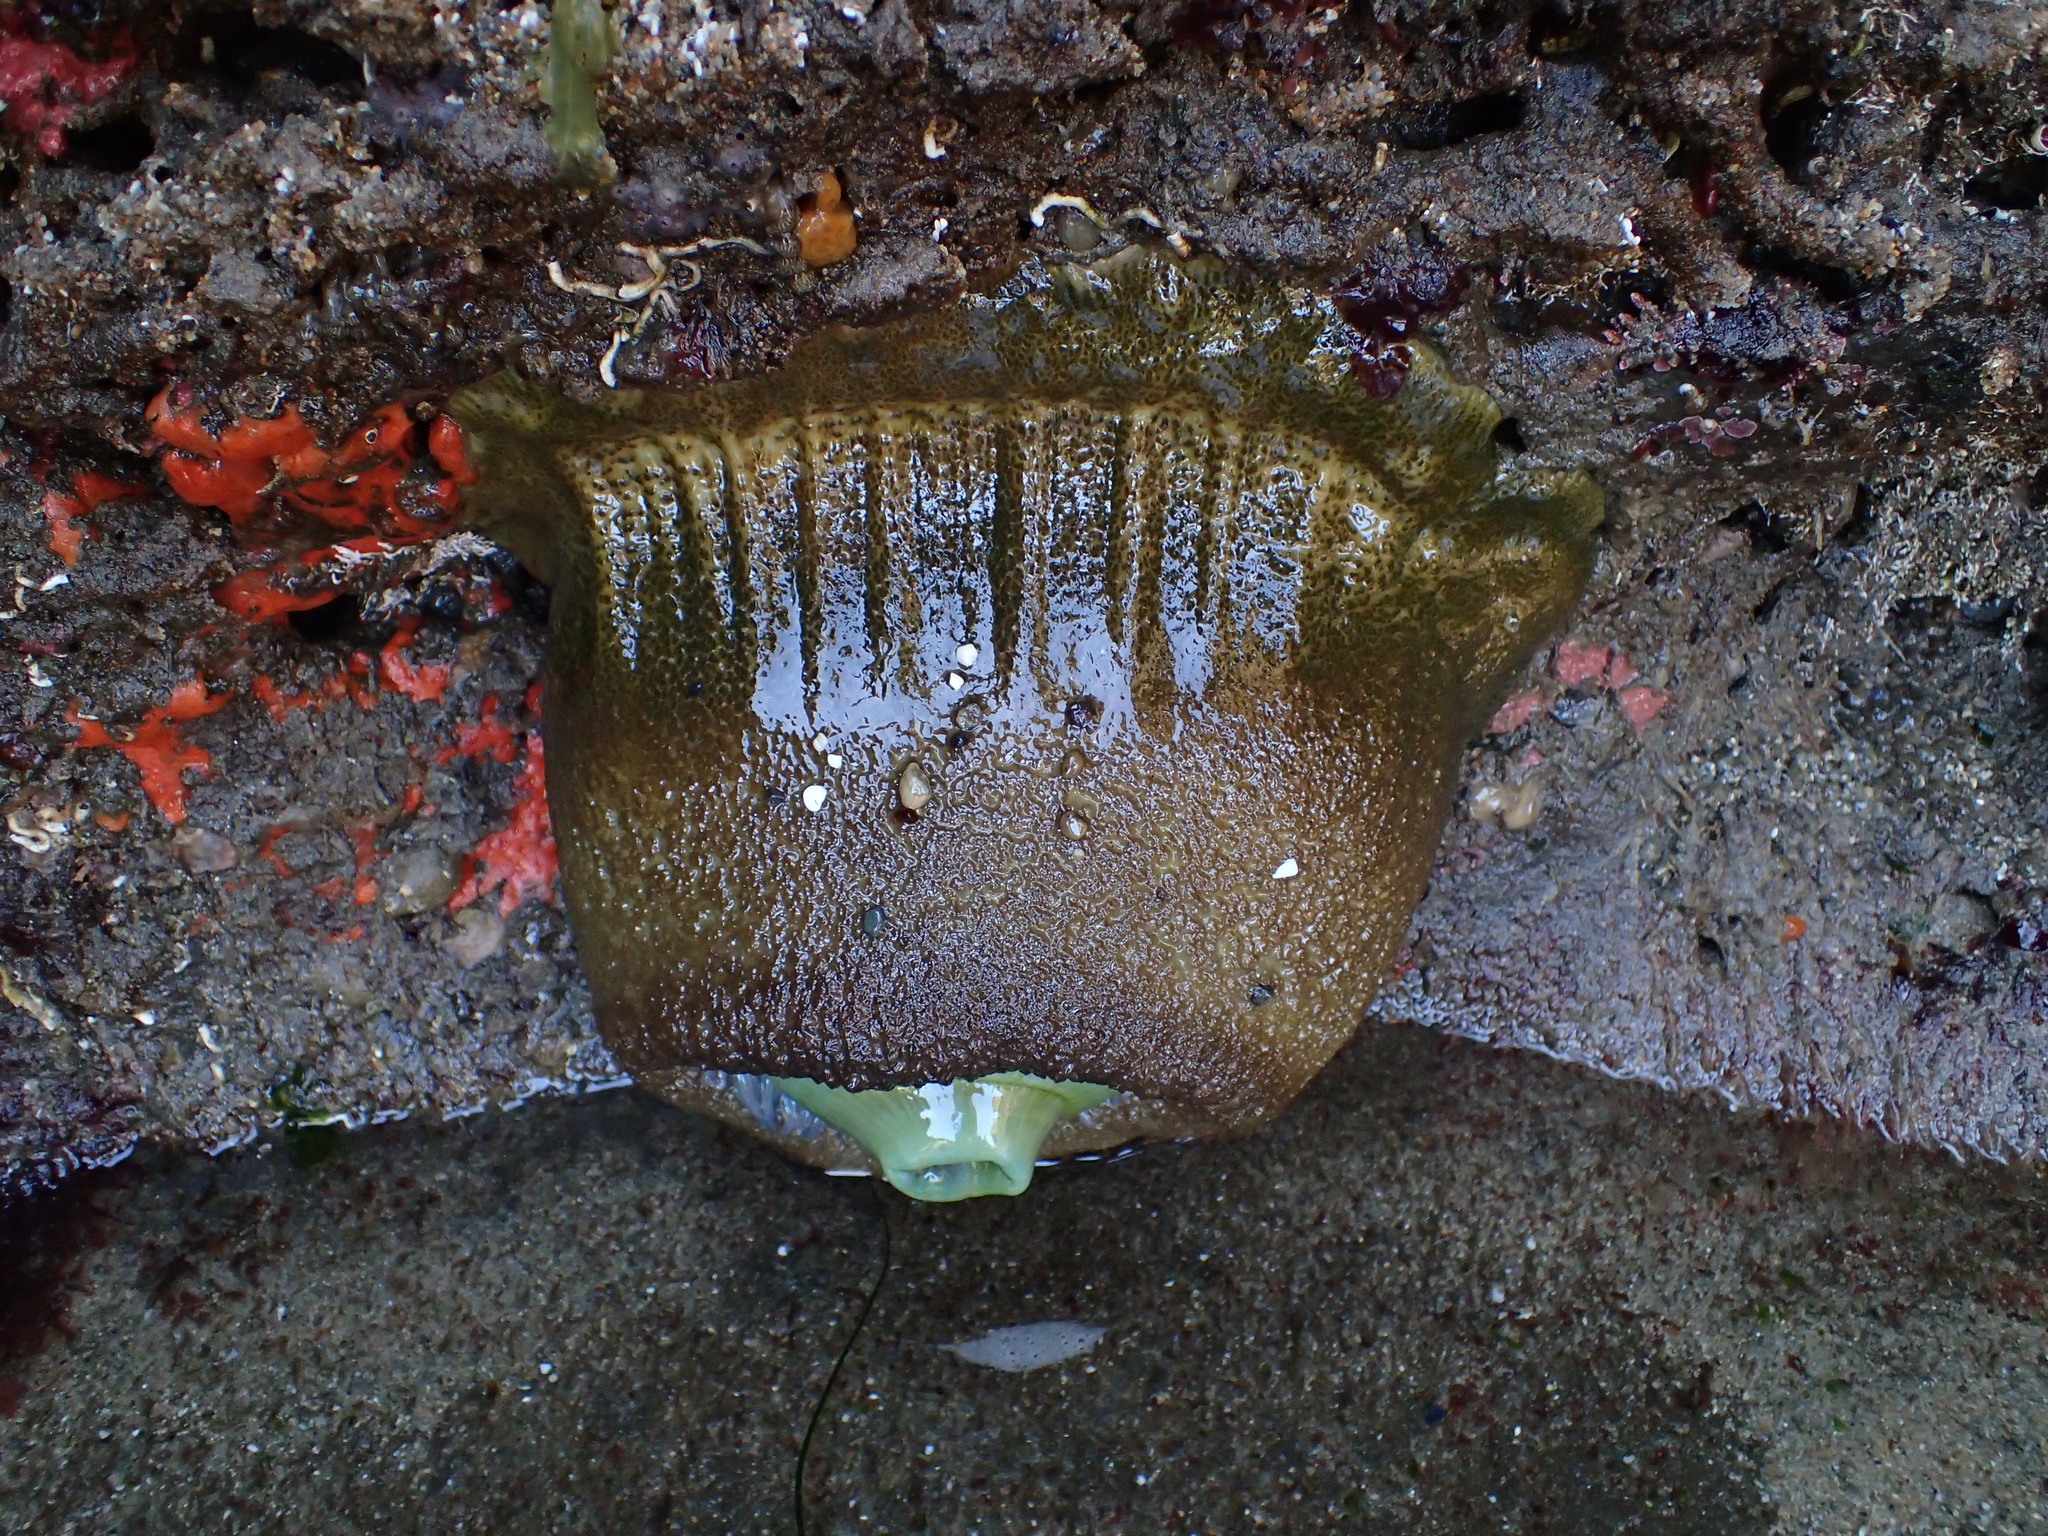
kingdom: Animalia
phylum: Cnidaria
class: Anthozoa
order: Actiniaria
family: Actiniidae
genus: Anthopleura
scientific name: Anthopleura xanthogrammica
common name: Giant green anemone
